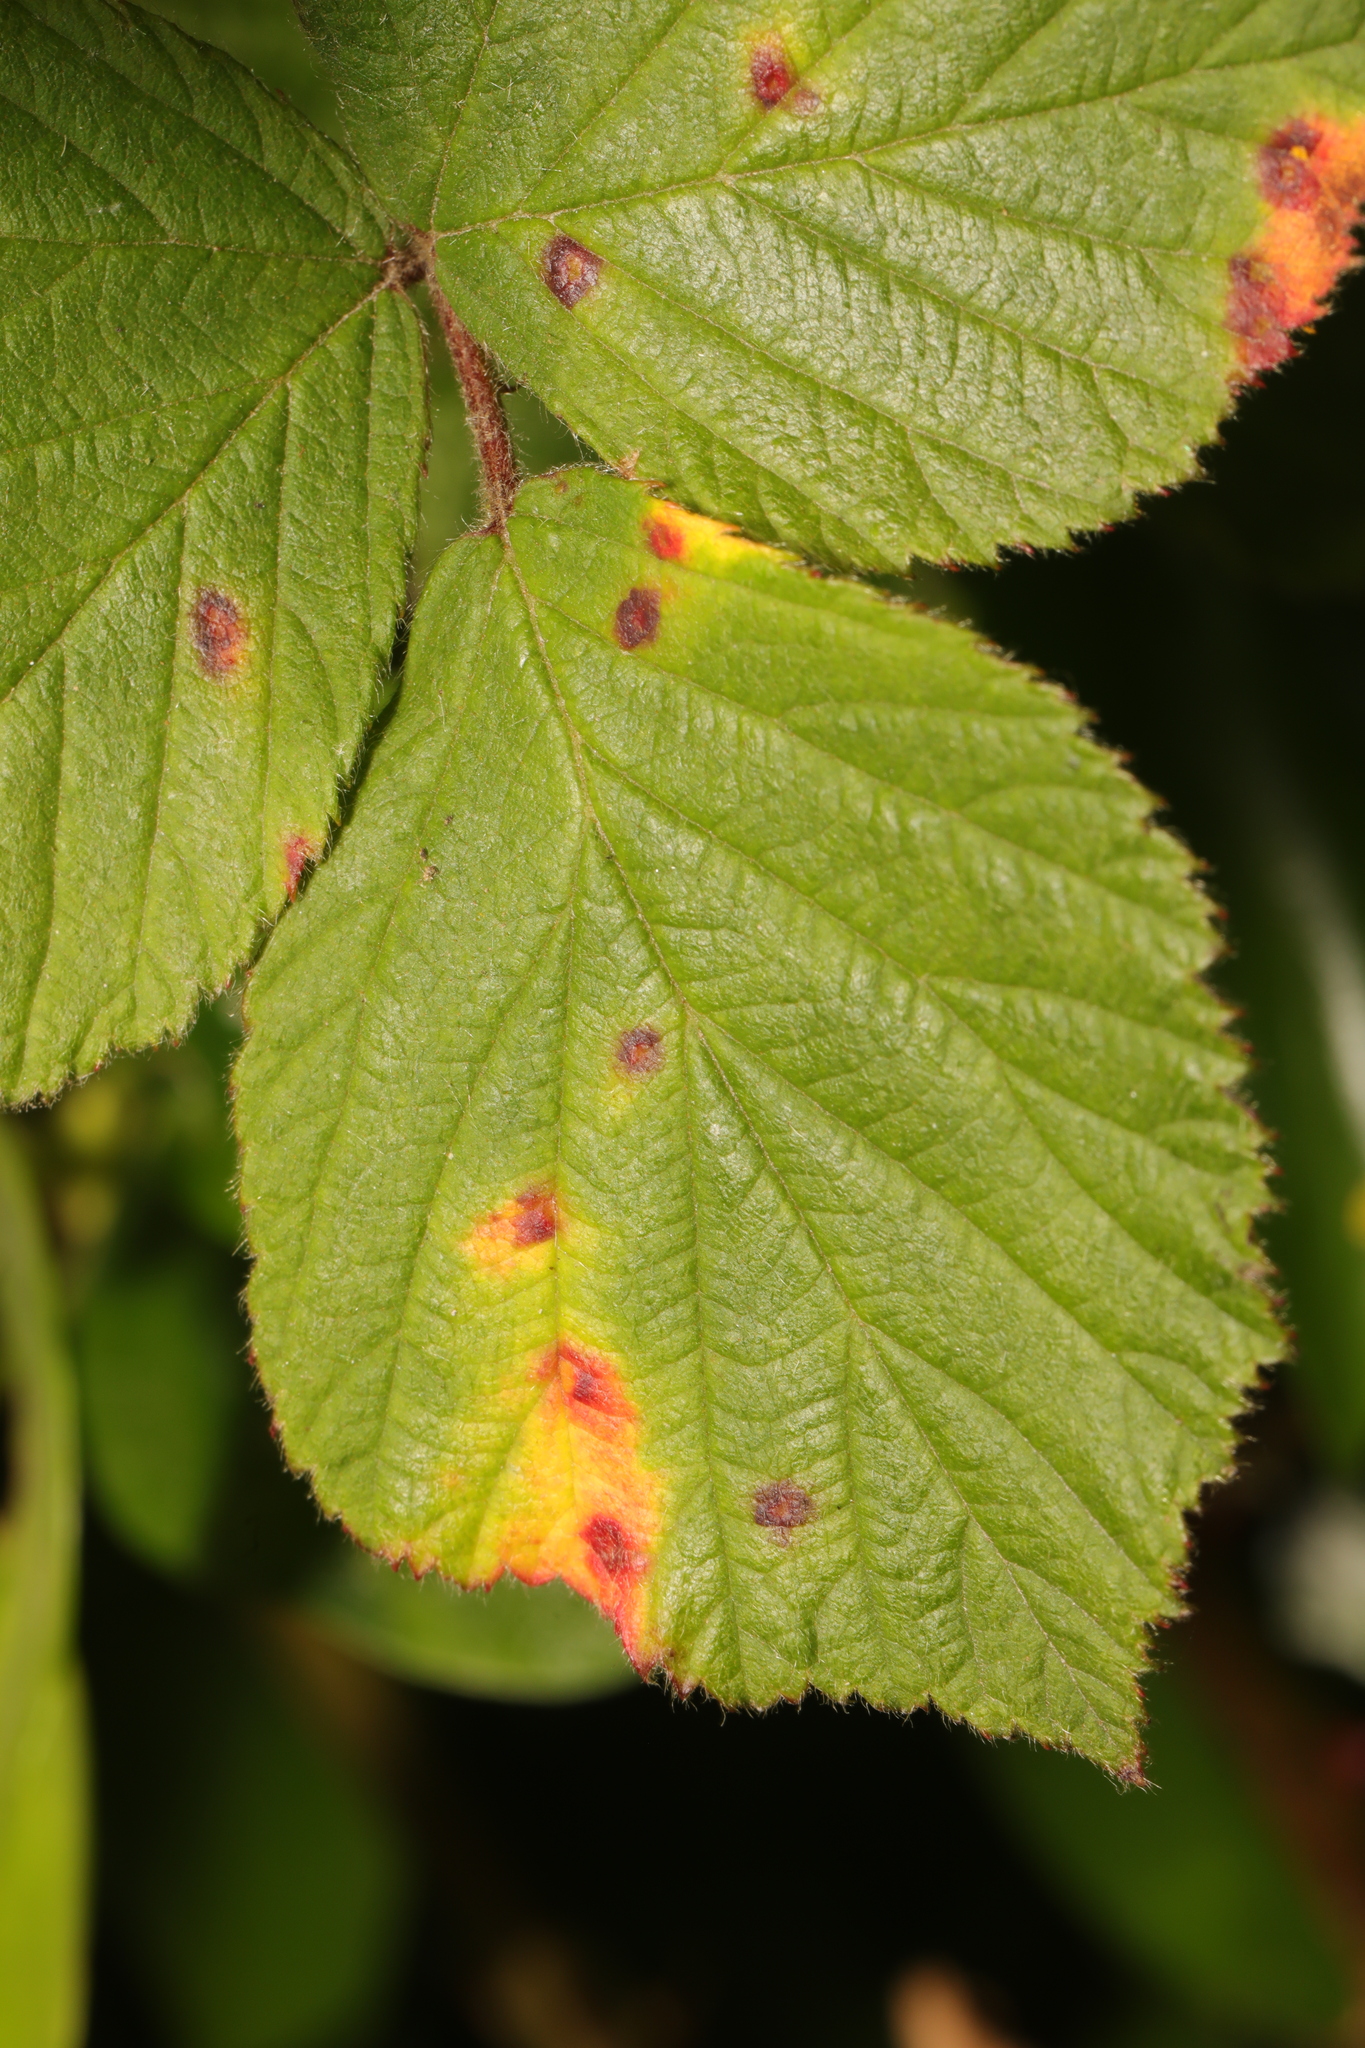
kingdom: Fungi
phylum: Basidiomycota
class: Pucciniomycetes
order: Pucciniales
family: Phragmidiaceae
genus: Phragmidium
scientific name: Phragmidium violaceum
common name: Violet bramble rust
